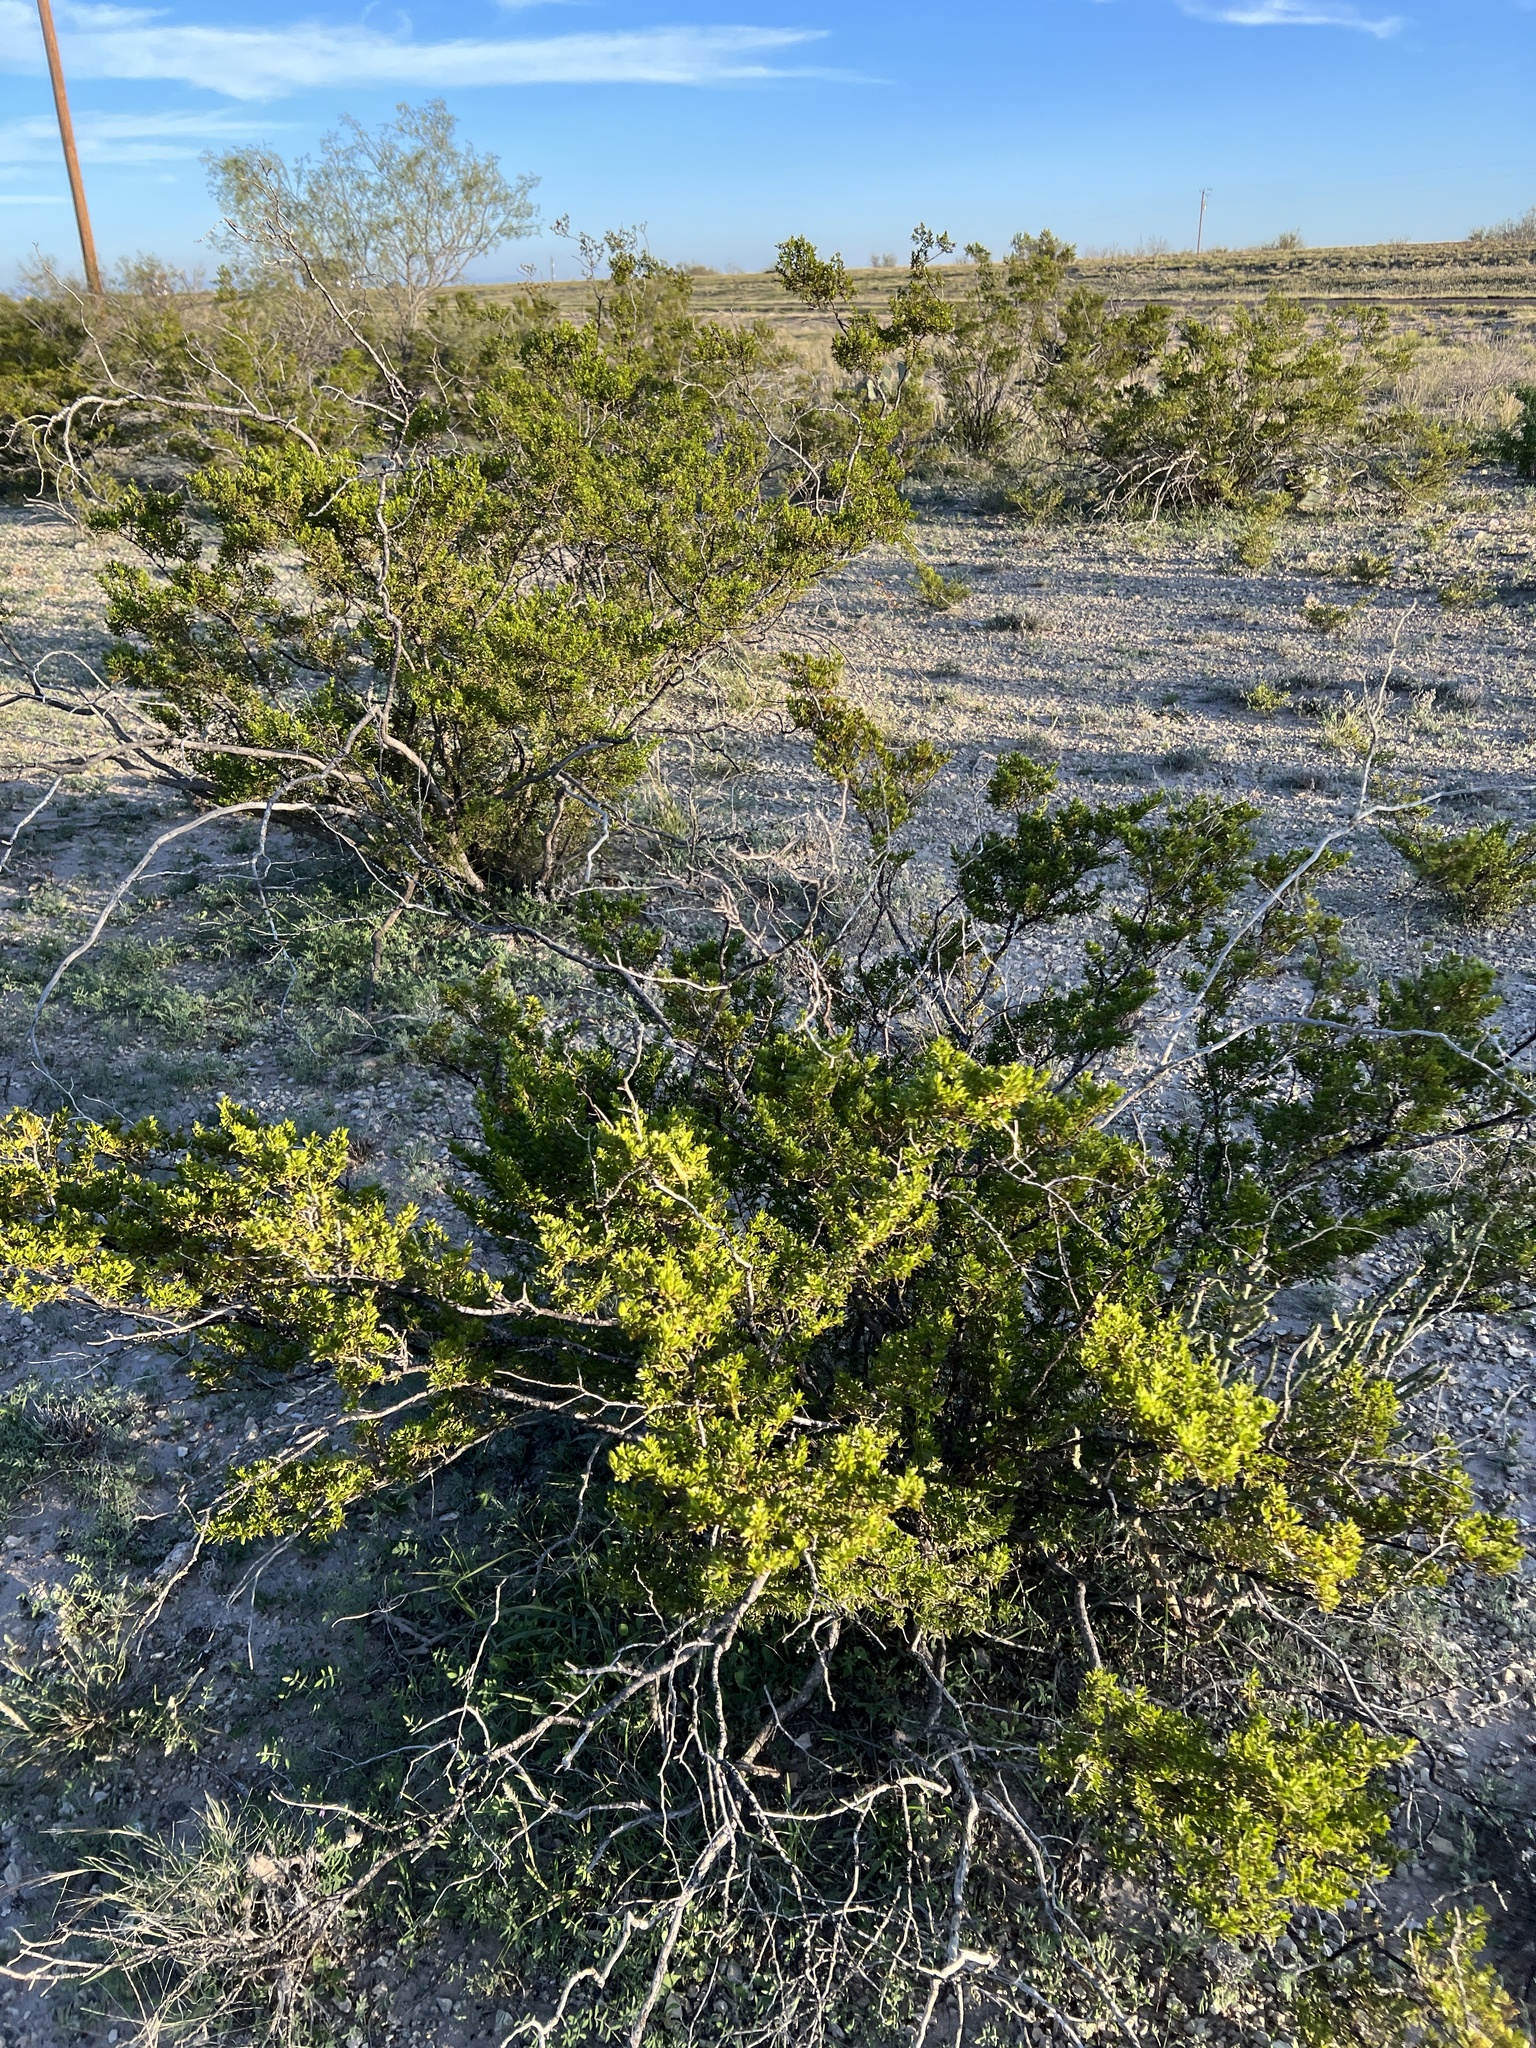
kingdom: Plantae
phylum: Tracheophyta
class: Magnoliopsida
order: Zygophyllales
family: Zygophyllaceae
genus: Larrea
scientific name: Larrea tridentata
